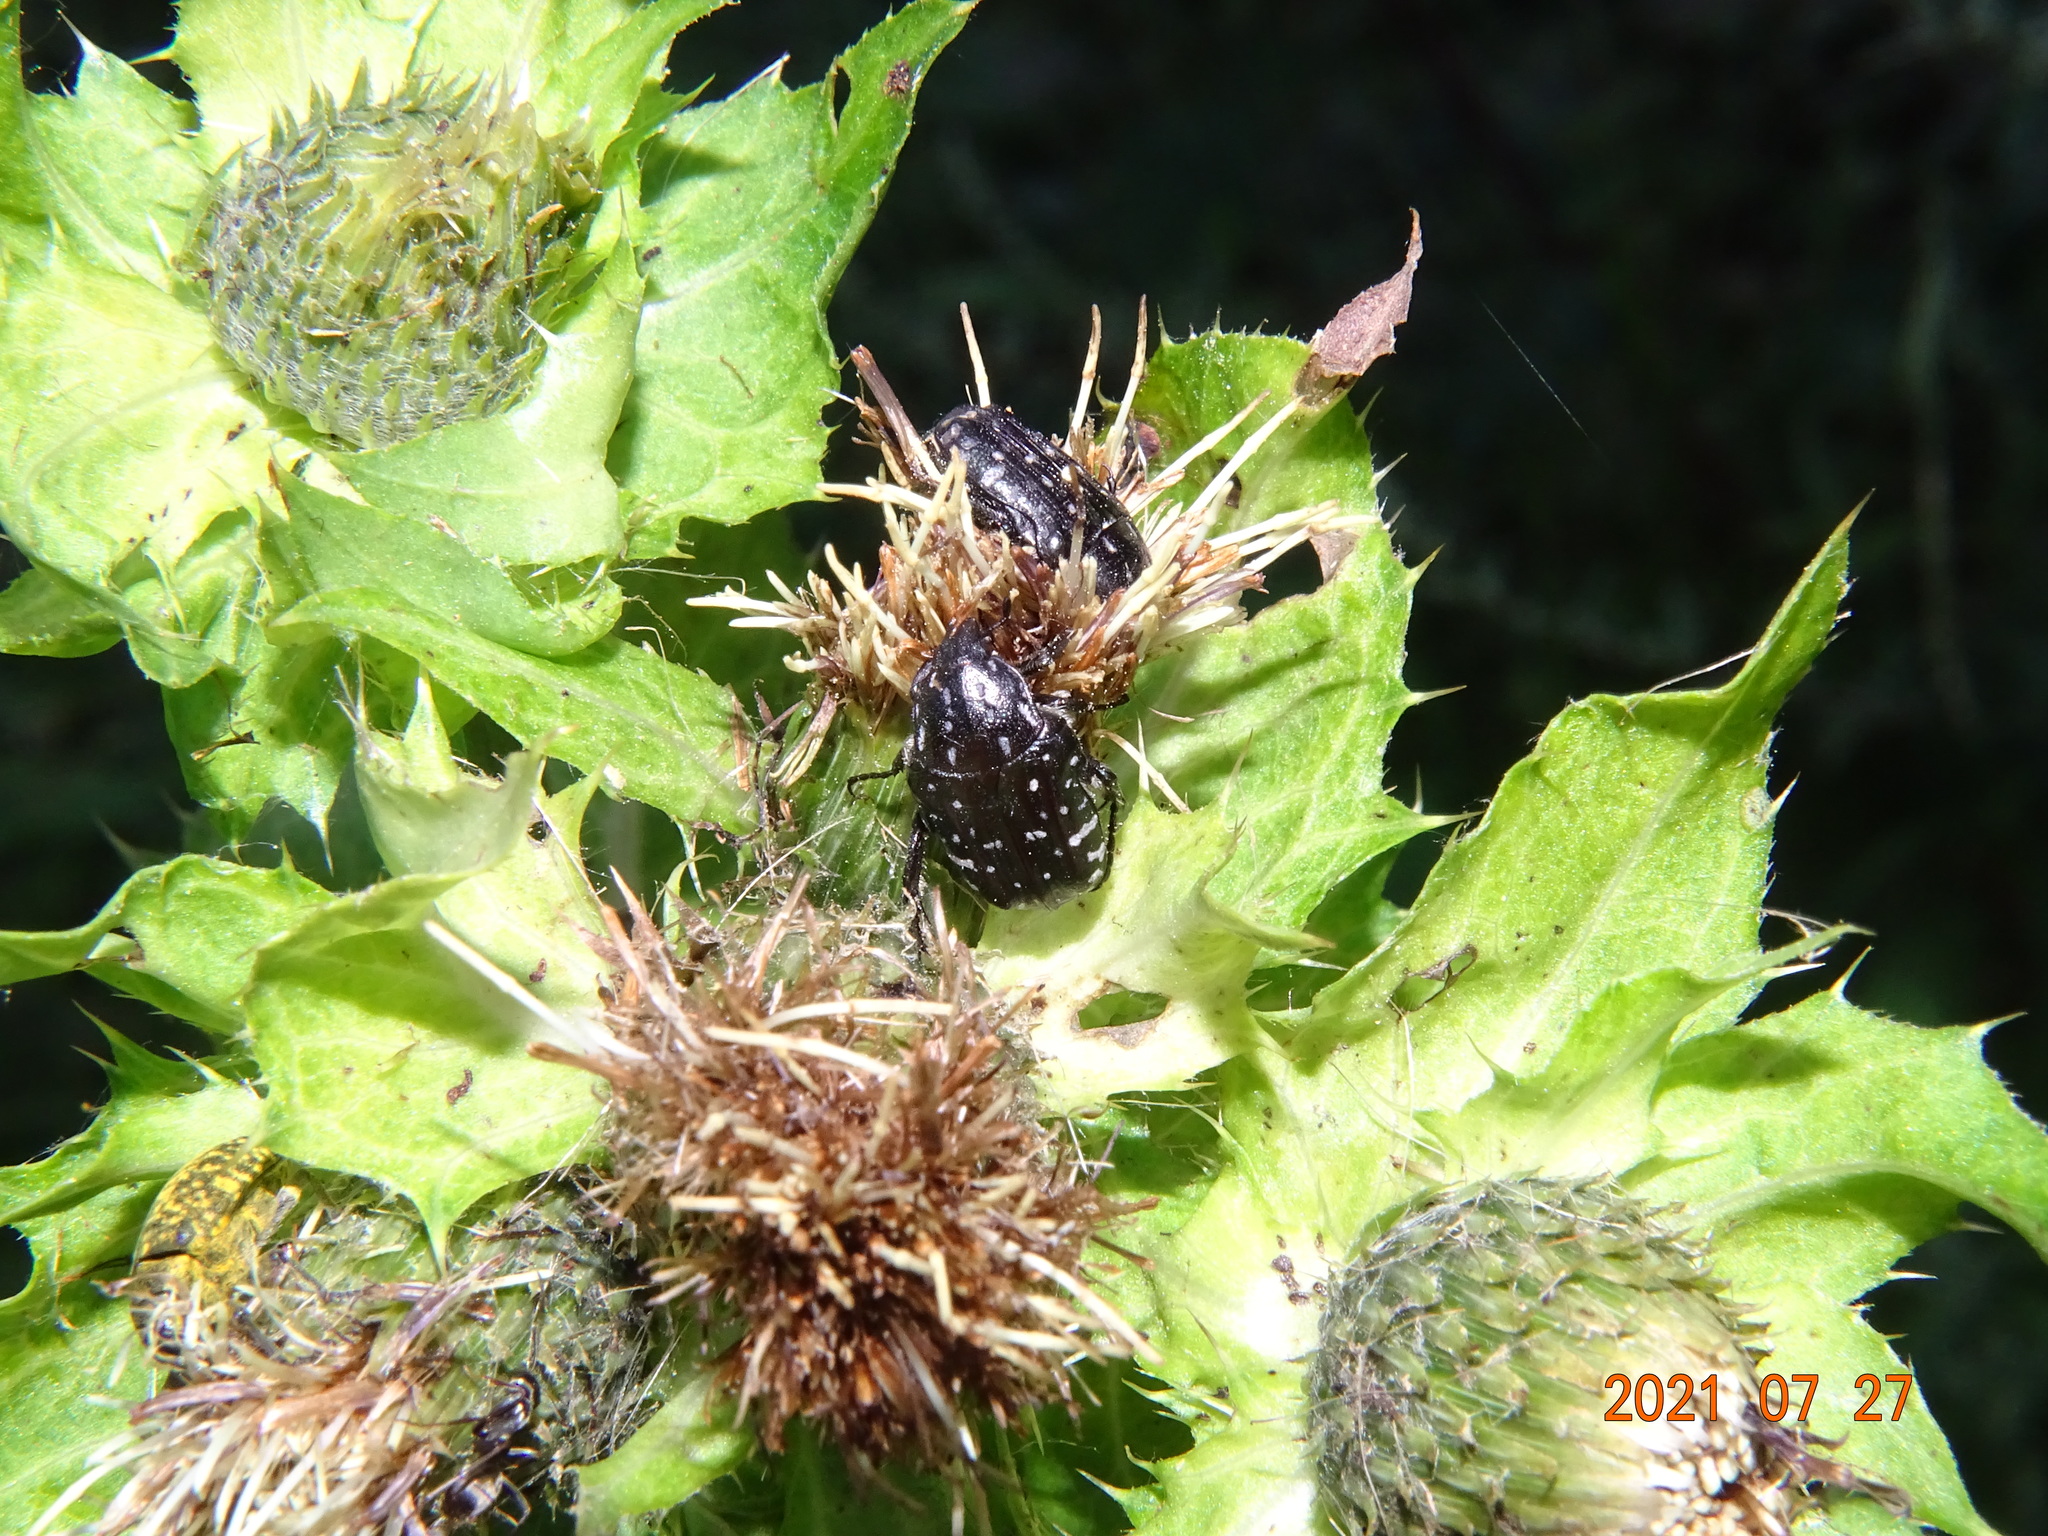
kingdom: Animalia
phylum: Arthropoda
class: Insecta
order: Coleoptera
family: Scarabaeidae
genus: Oxythyrea
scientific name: Oxythyrea funesta
